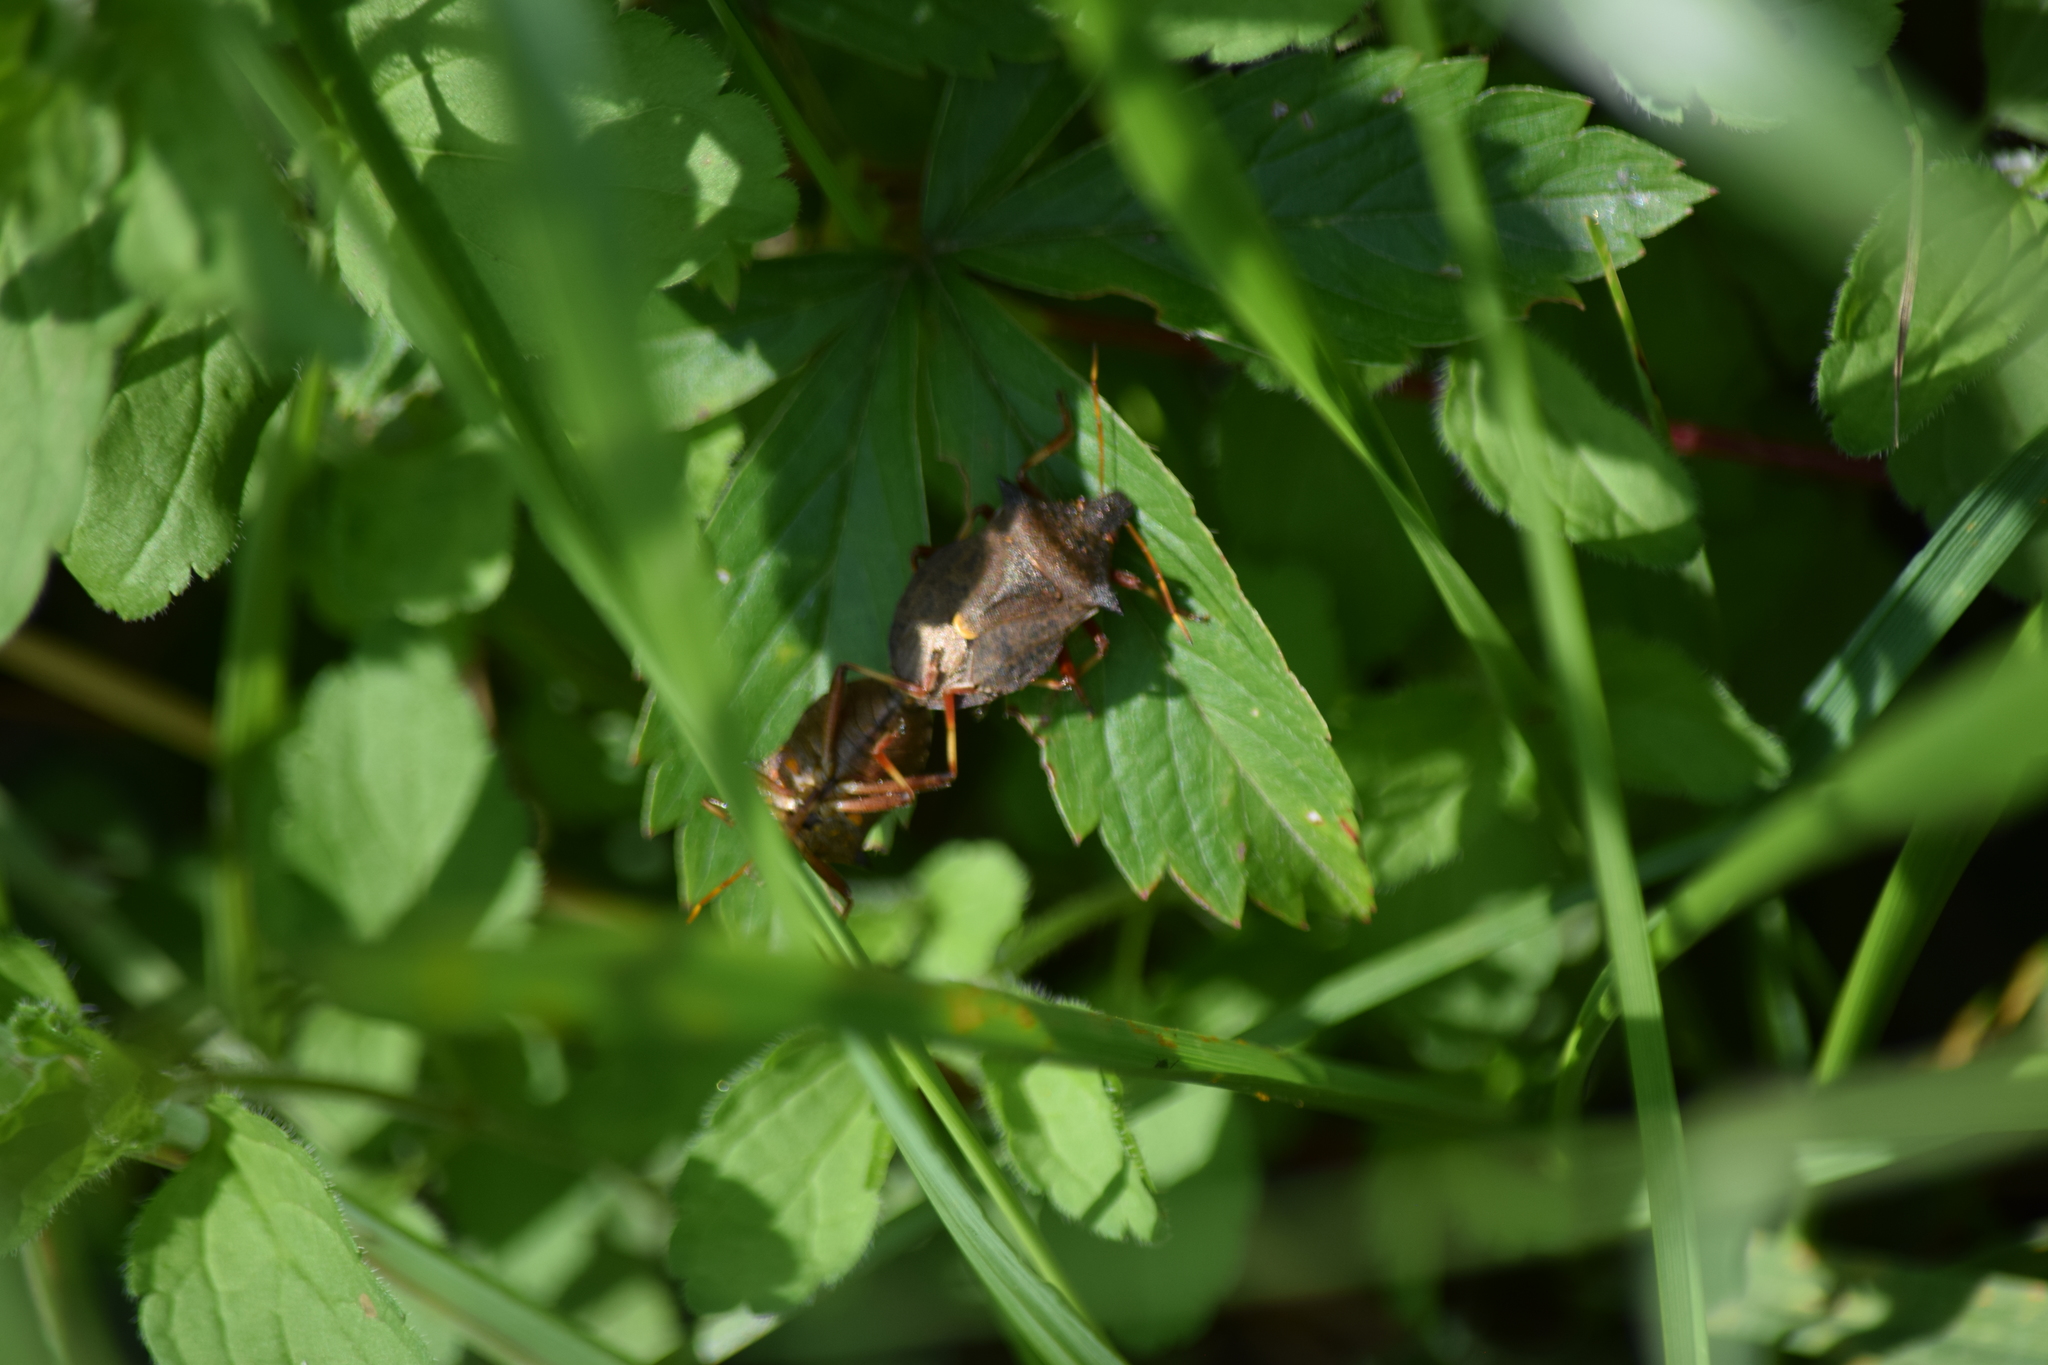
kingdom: Animalia
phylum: Arthropoda
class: Insecta
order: Hemiptera
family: Pentatomidae
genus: Picromerus
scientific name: Picromerus bidens
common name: Spiked shieldbug
